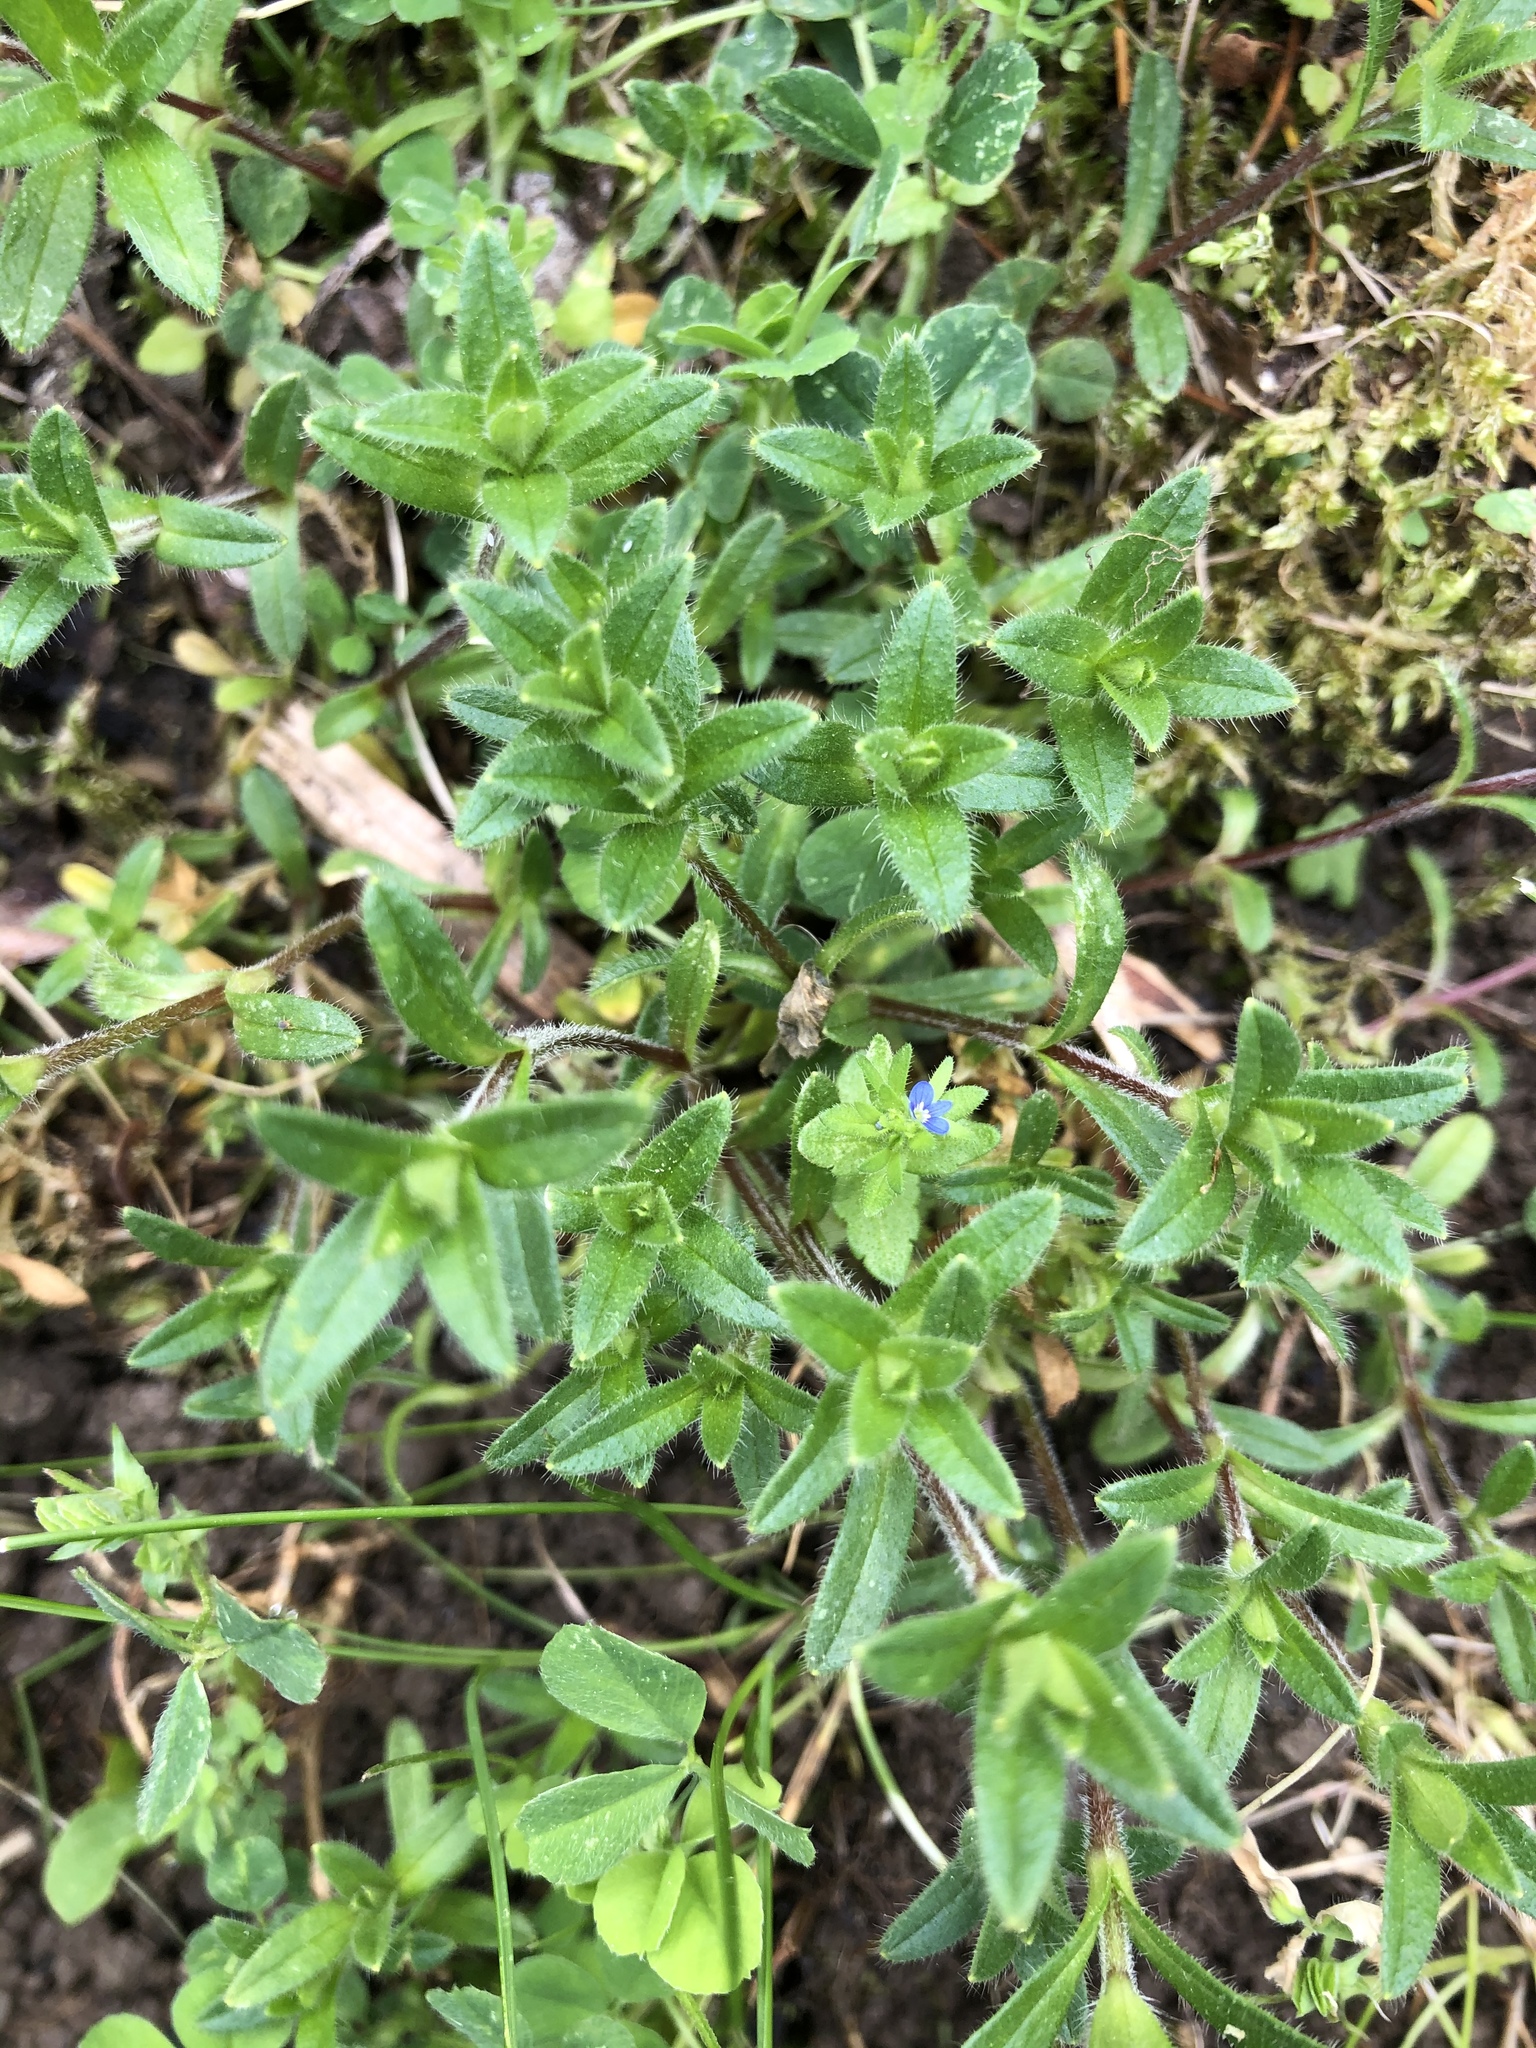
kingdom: Plantae
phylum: Tracheophyta
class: Magnoliopsida
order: Lamiales
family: Plantaginaceae
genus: Veronica
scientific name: Veronica arvensis
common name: Corn speedwell
